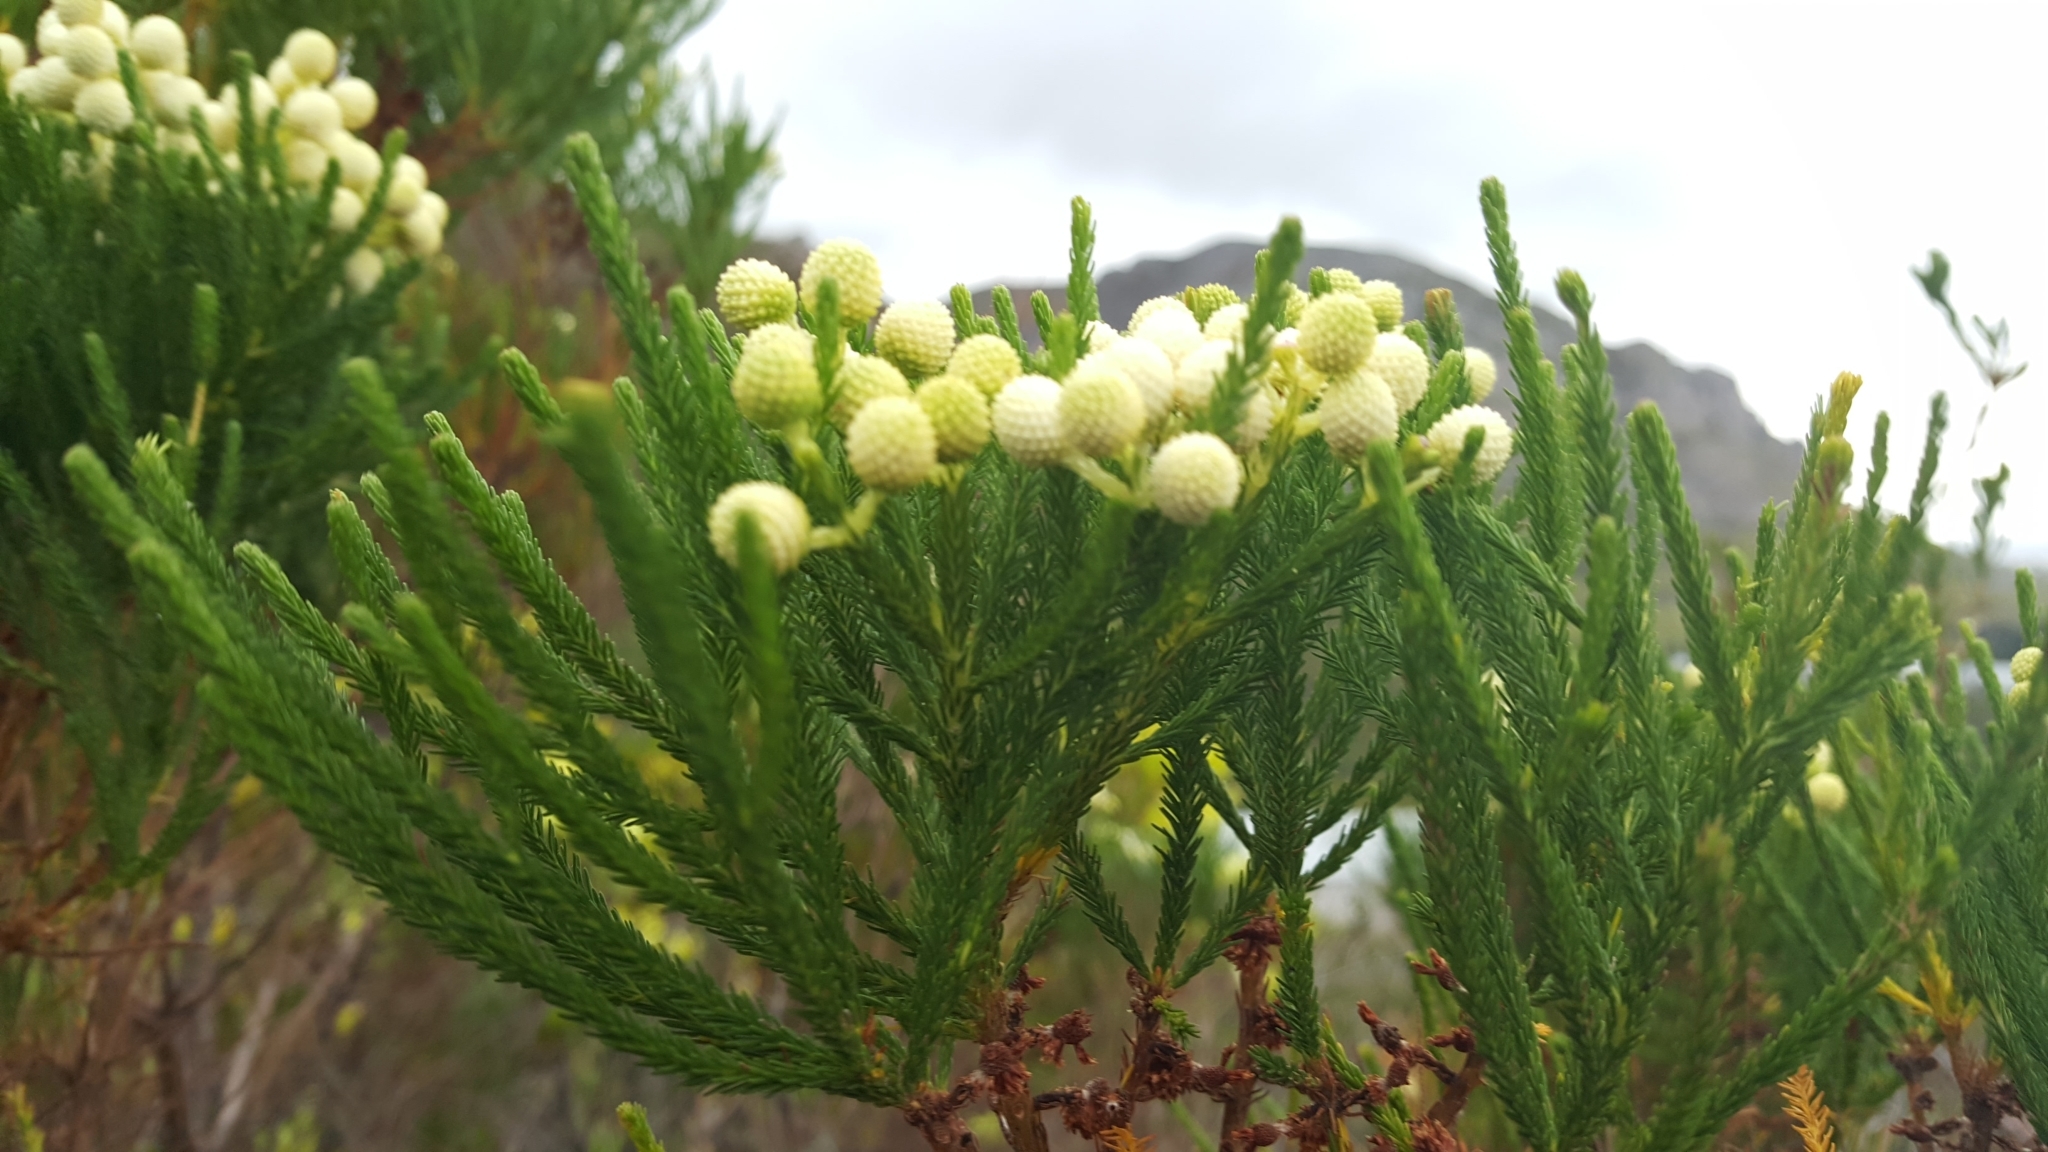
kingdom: Plantae
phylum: Tracheophyta
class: Magnoliopsida
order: Bruniales
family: Bruniaceae
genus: Berzelia
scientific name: Berzelia lanuginosa
